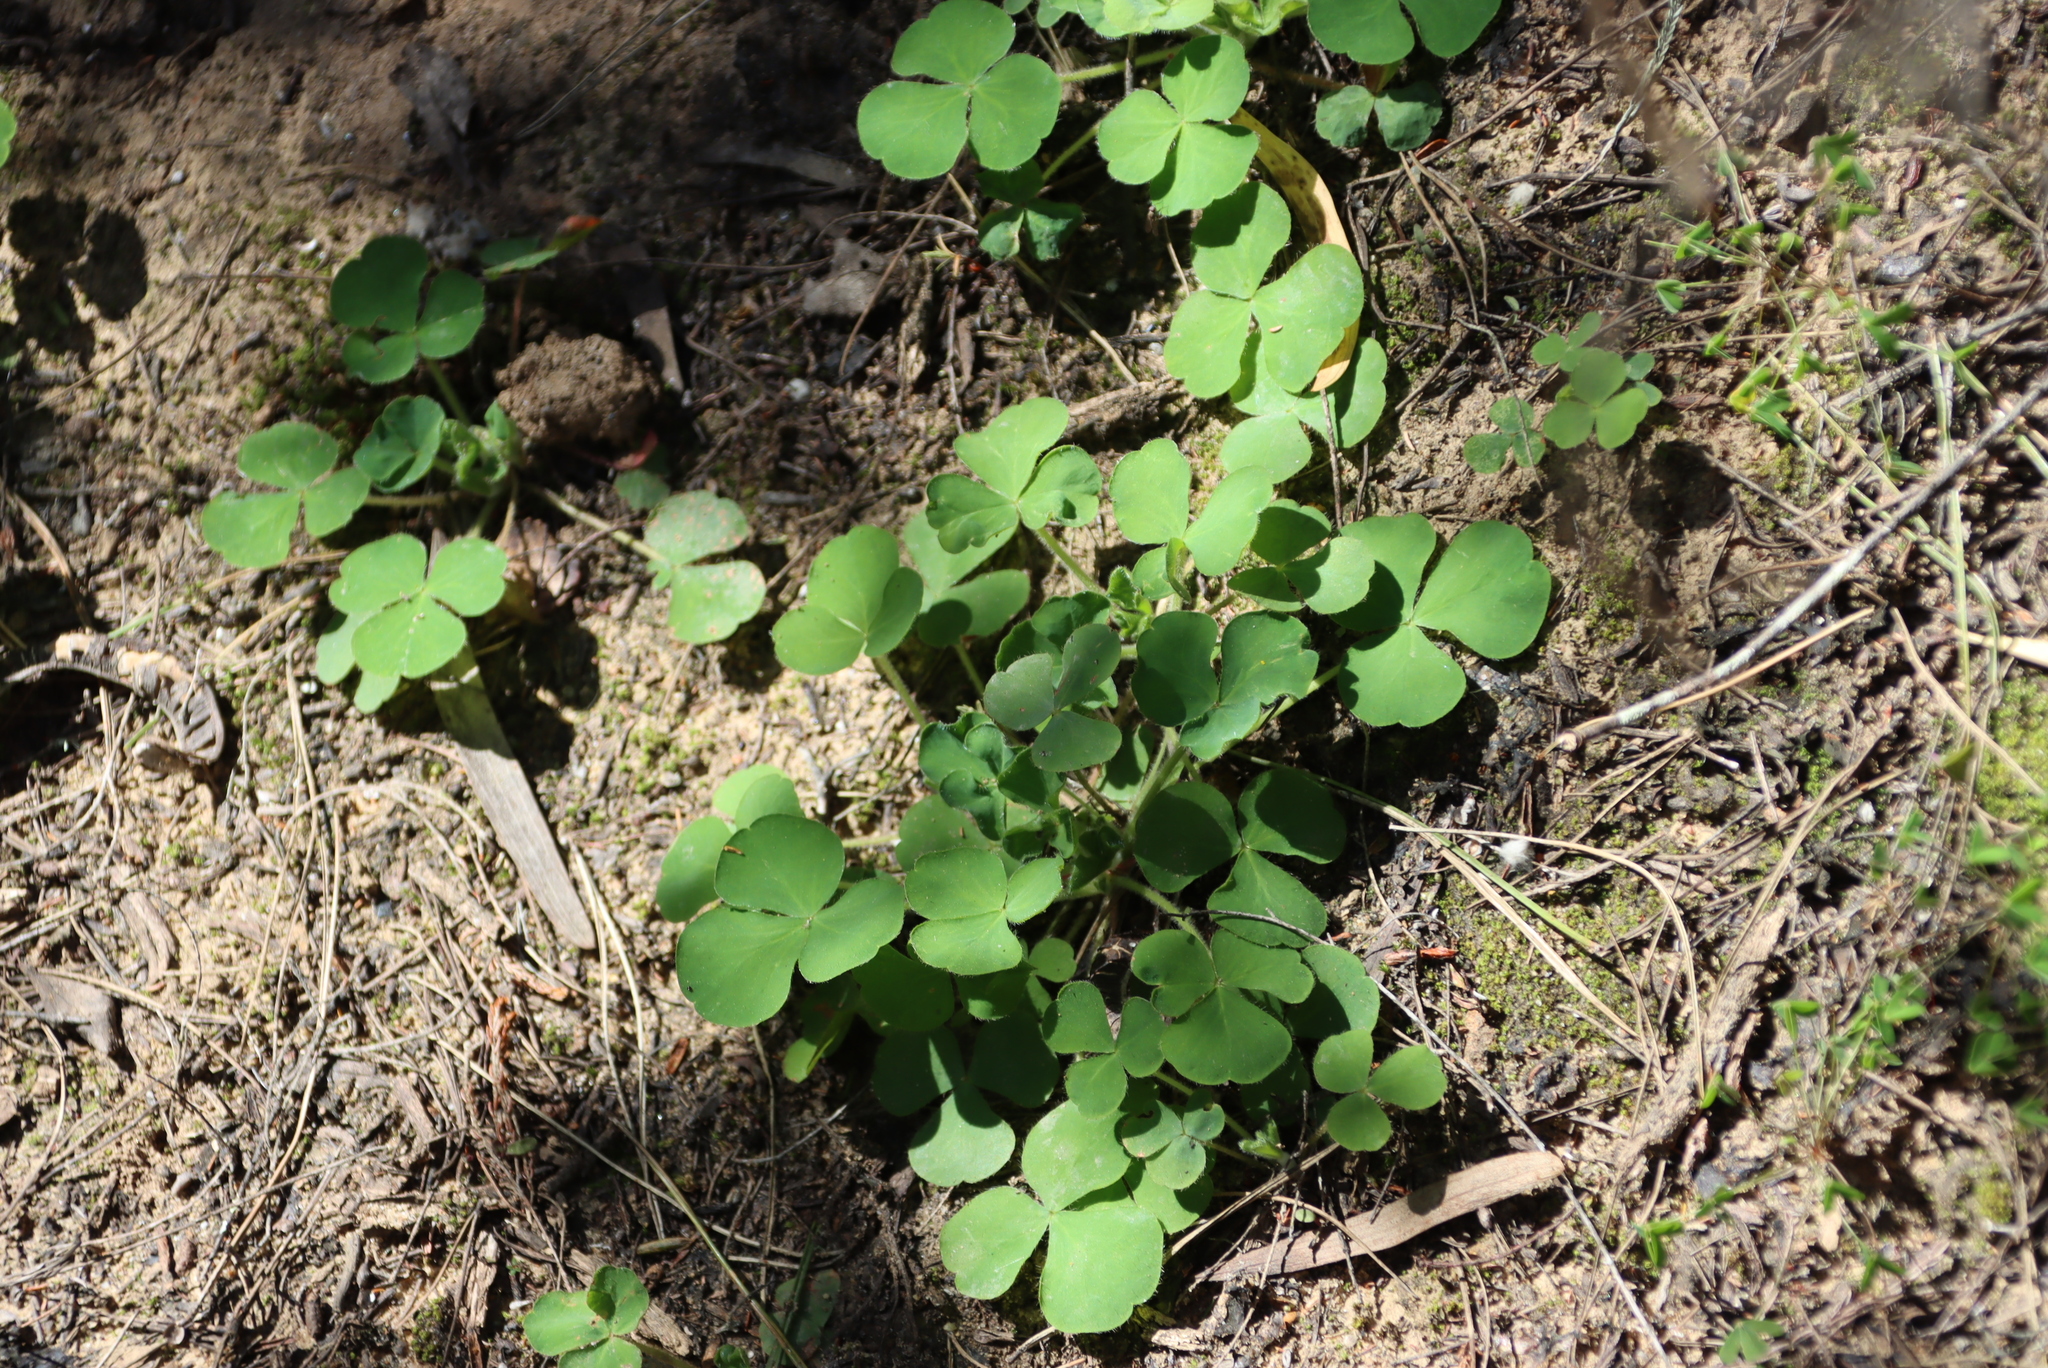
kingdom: Plantae
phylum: Tracheophyta
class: Magnoliopsida
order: Oxalidales
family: Oxalidaceae
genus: Oxalis
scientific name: Oxalis imbricata
